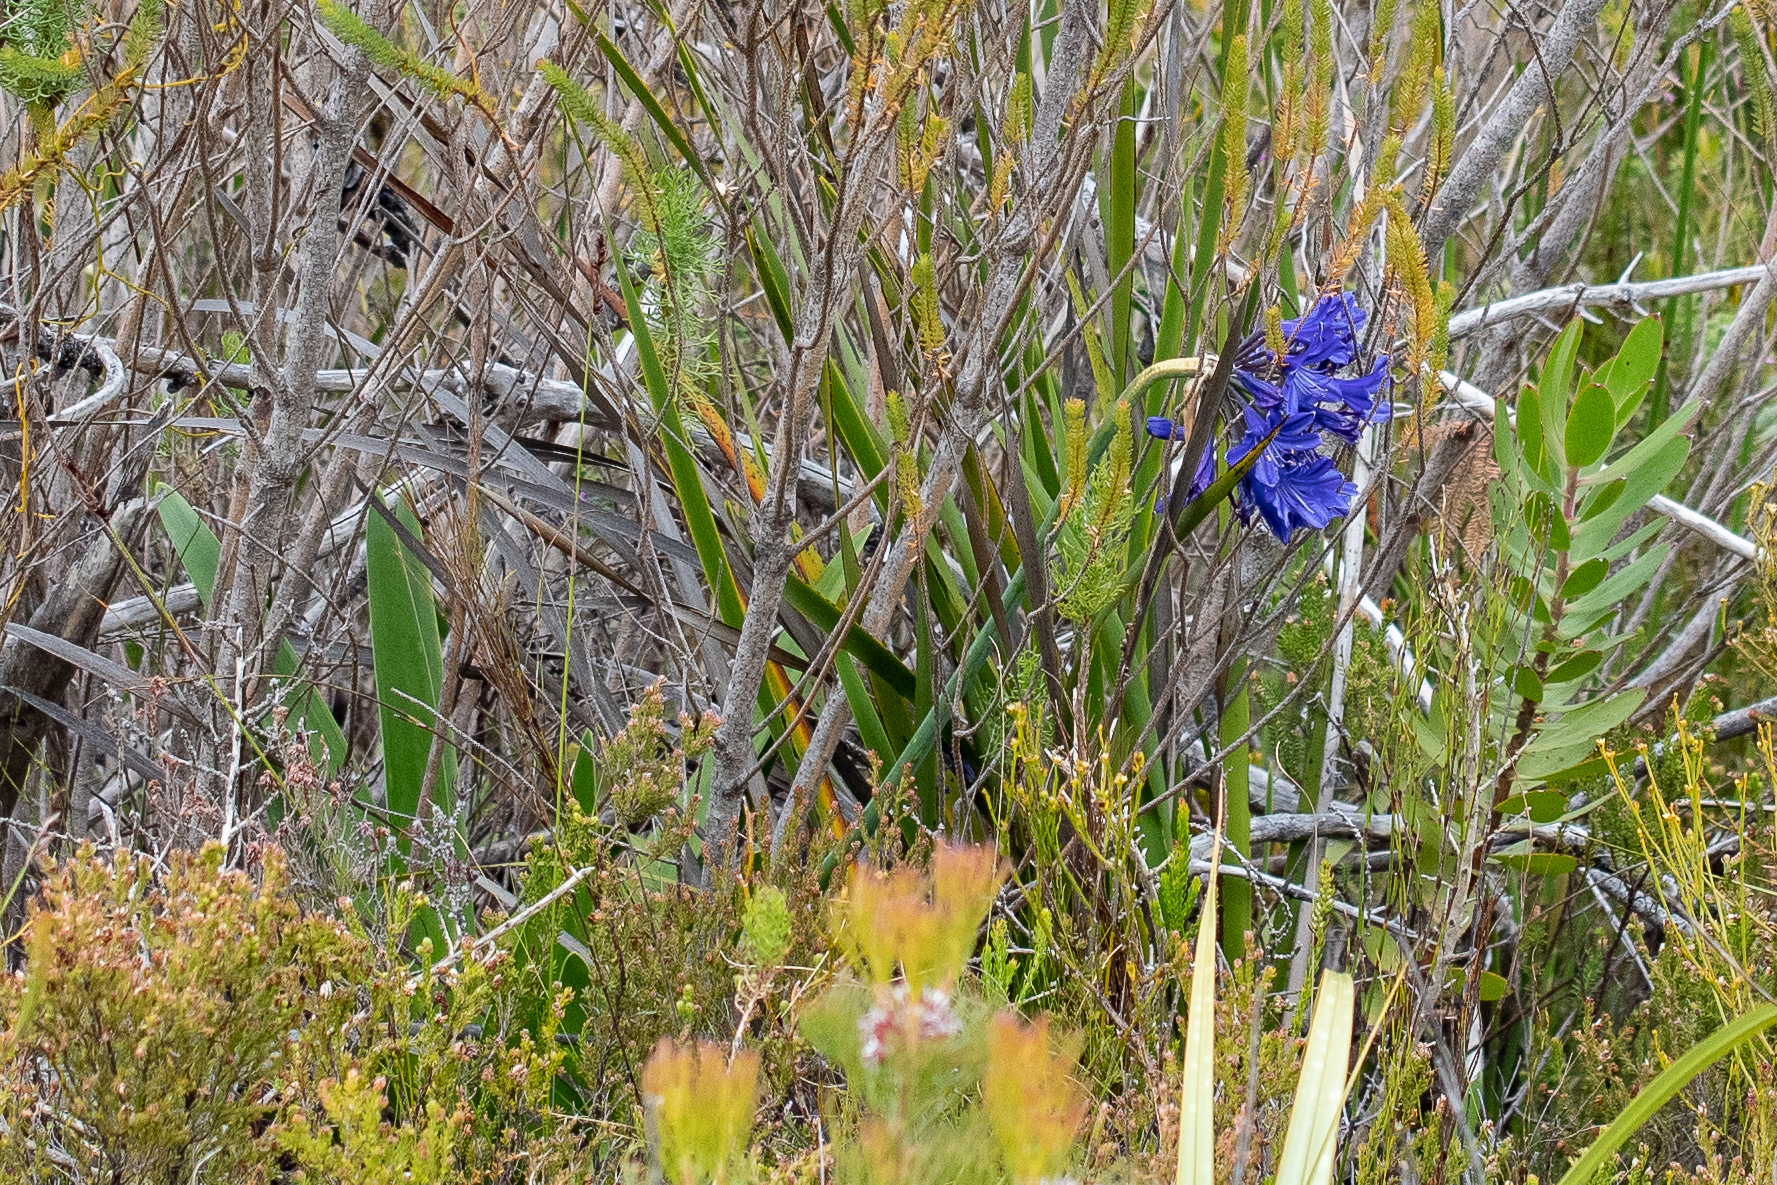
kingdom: Plantae
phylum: Tracheophyta
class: Liliopsida
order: Asparagales
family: Amaryllidaceae
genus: Agapanthus
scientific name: Agapanthus africanus
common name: Lily-of-the-nile
